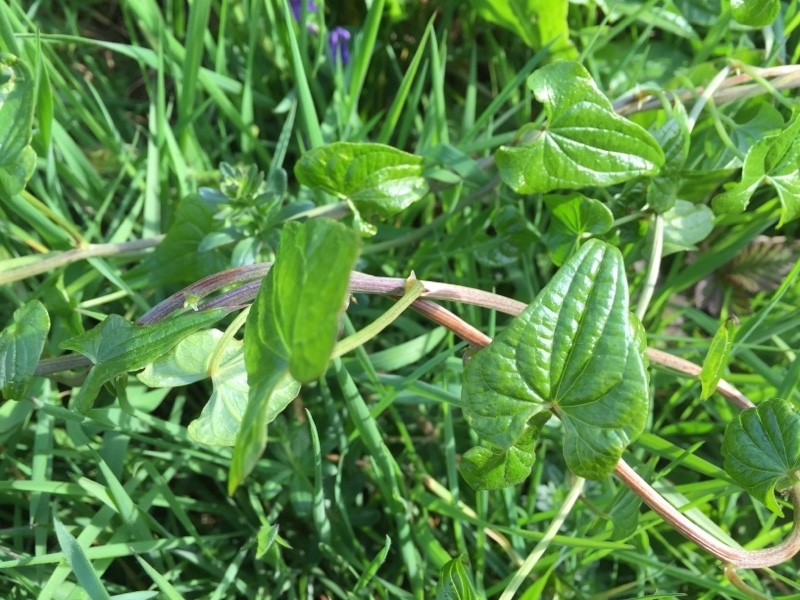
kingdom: Plantae
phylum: Tracheophyta
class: Liliopsida
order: Dioscoreales
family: Dioscoreaceae
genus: Dioscorea
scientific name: Dioscorea communis
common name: Black-bindweed
